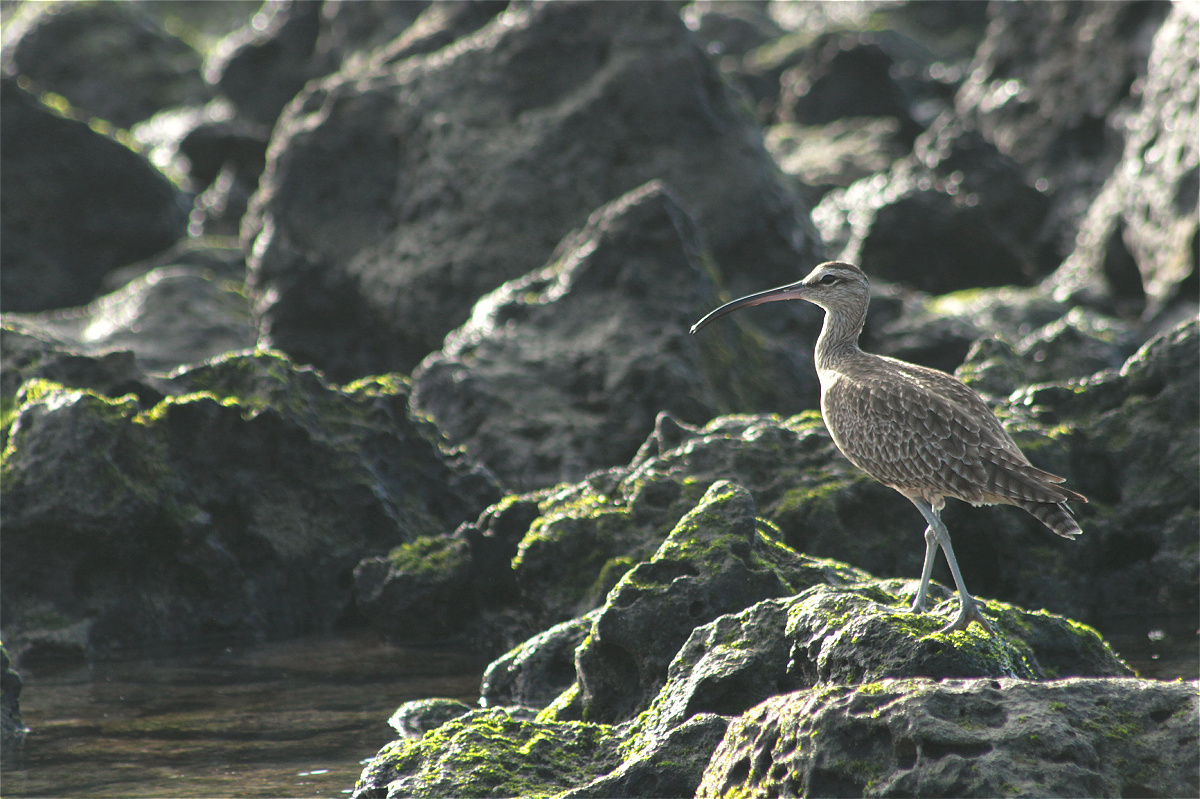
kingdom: Animalia
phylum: Chordata
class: Aves
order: Charadriiformes
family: Scolopacidae
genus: Numenius
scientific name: Numenius phaeopus
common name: Whimbrel
